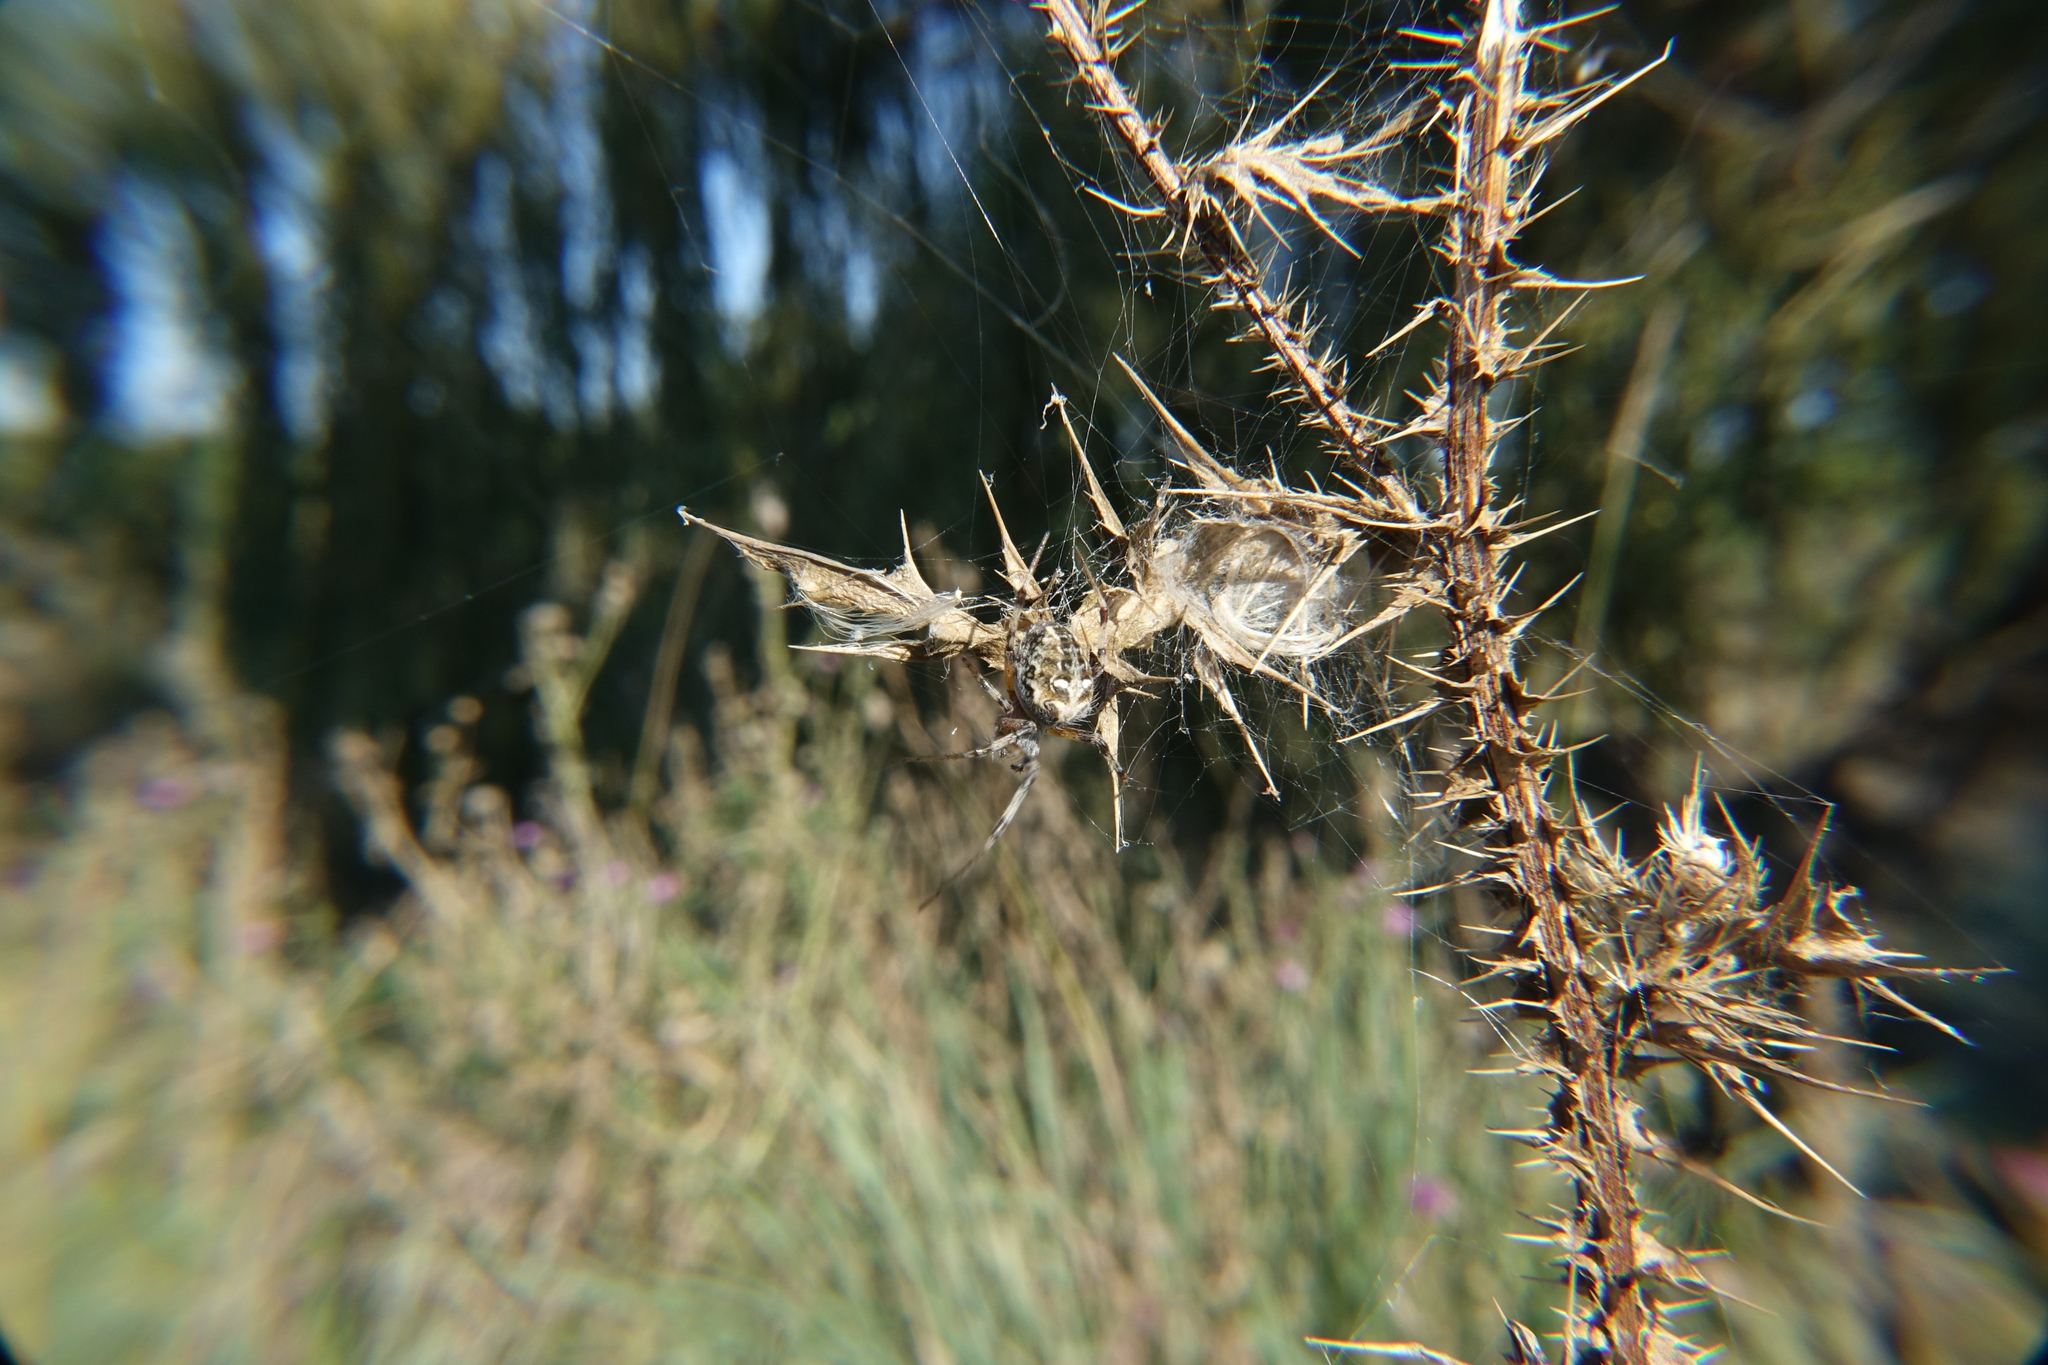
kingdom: Animalia
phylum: Arthropoda
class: Arachnida
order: Araneae
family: Araneidae
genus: Metepeira
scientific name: Metepeira
